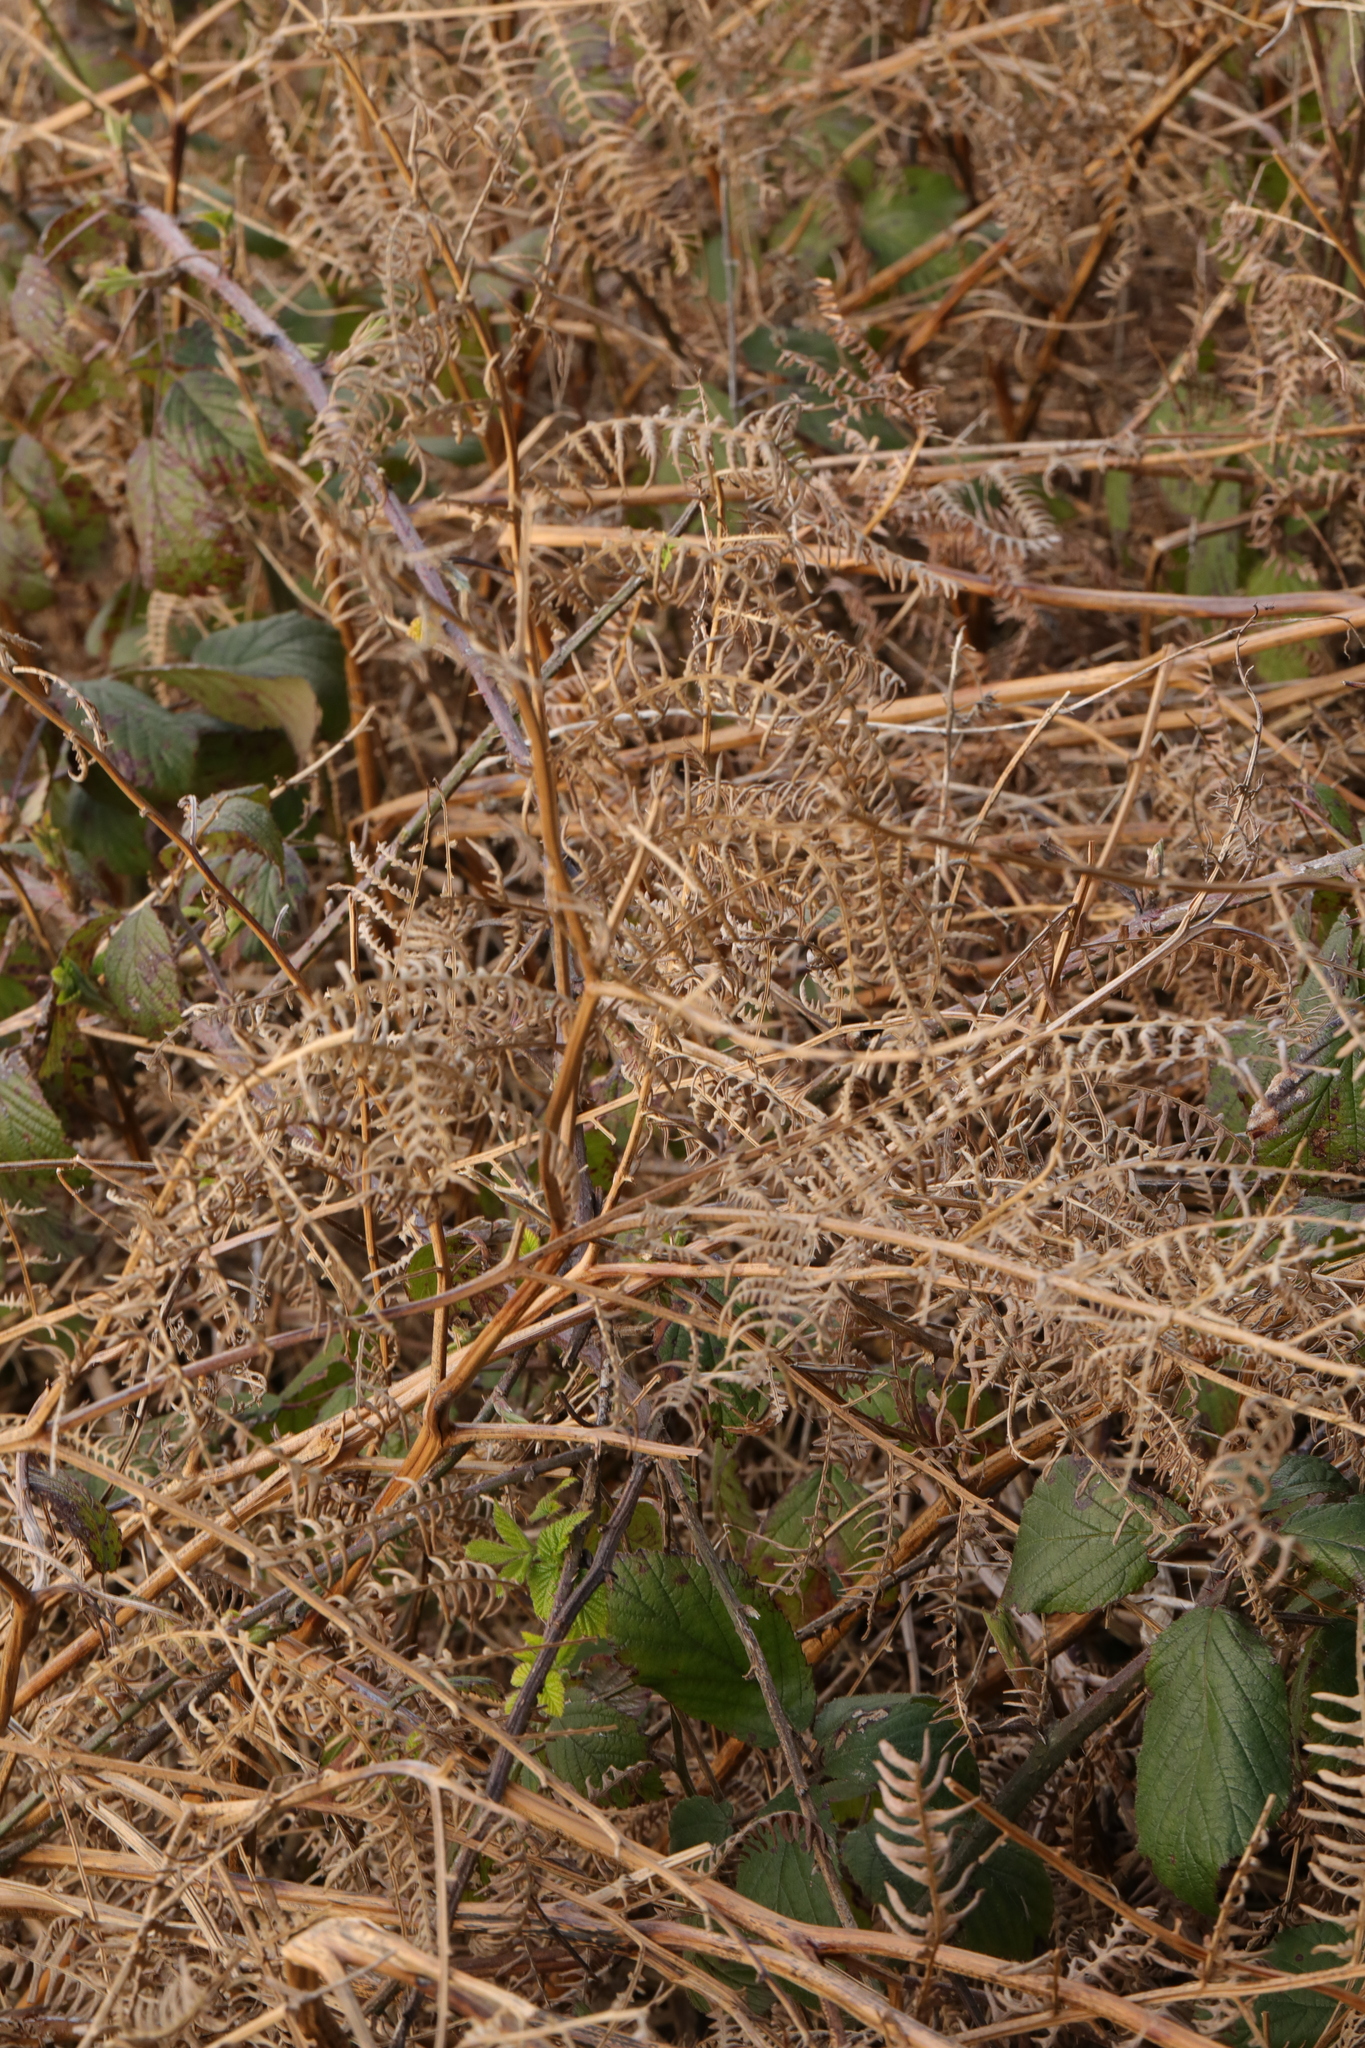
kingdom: Plantae
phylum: Tracheophyta
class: Polypodiopsida
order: Polypodiales
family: Dennstaedtiaceae
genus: Pteridium
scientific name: Pteridium aquilinum
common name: Bracken
